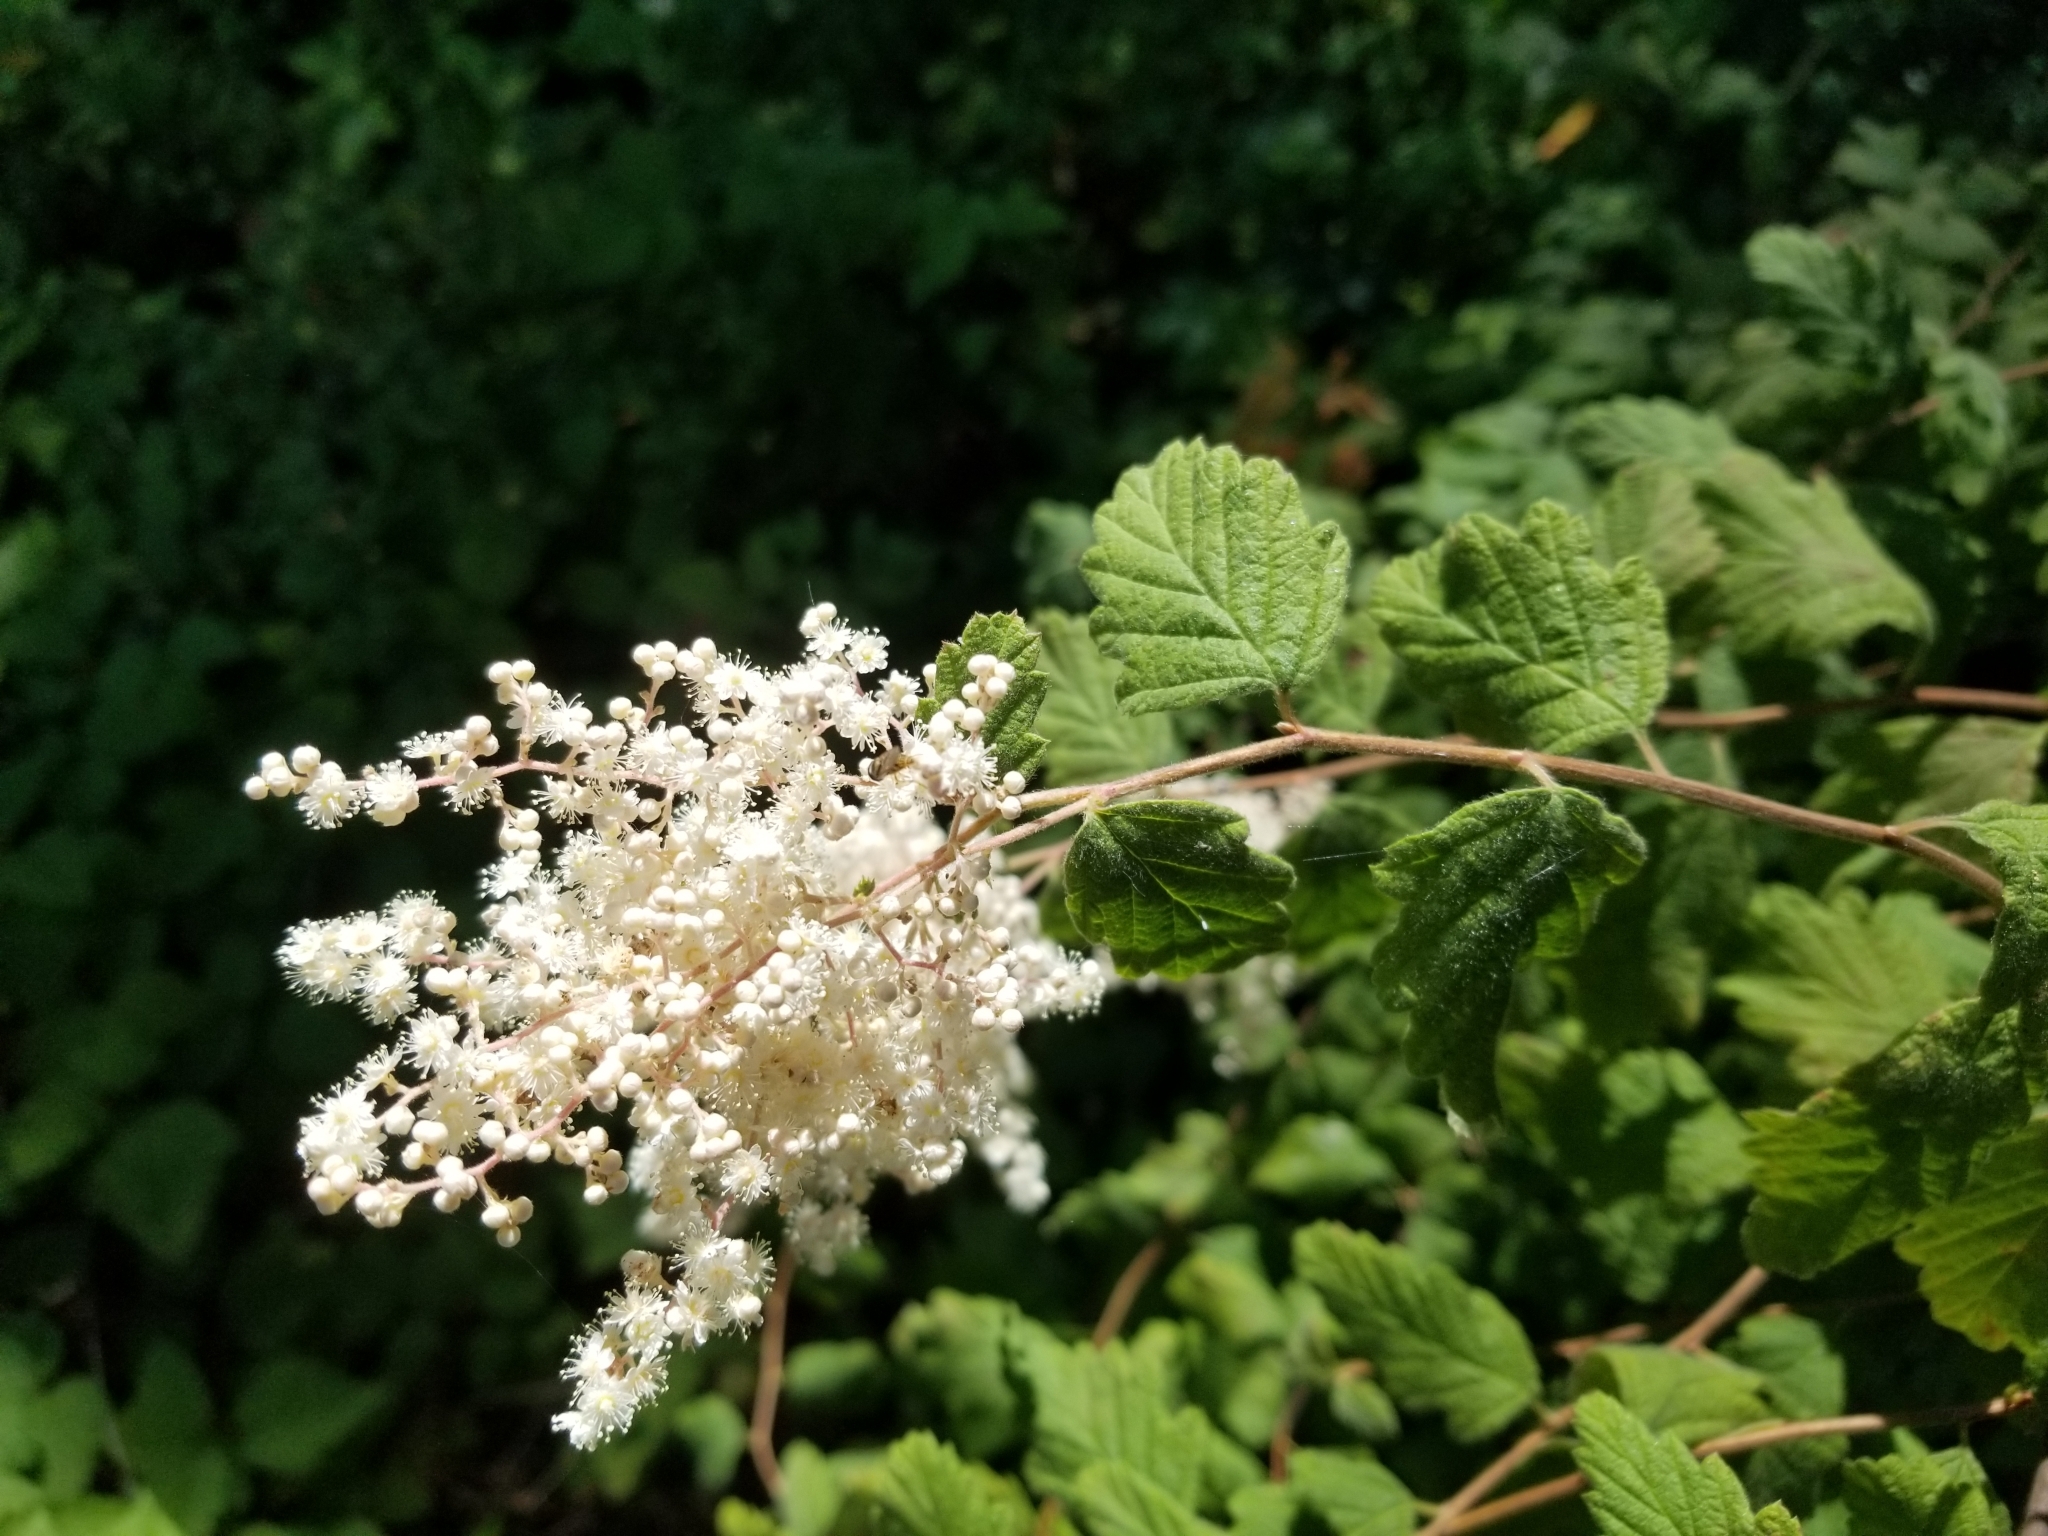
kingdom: Plantae
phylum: Tracheophyta
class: Magnoliopsida
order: Rosales
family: Rosaceae
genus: Holodiscus
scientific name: Holodiscus discolor
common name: Oceanspray
